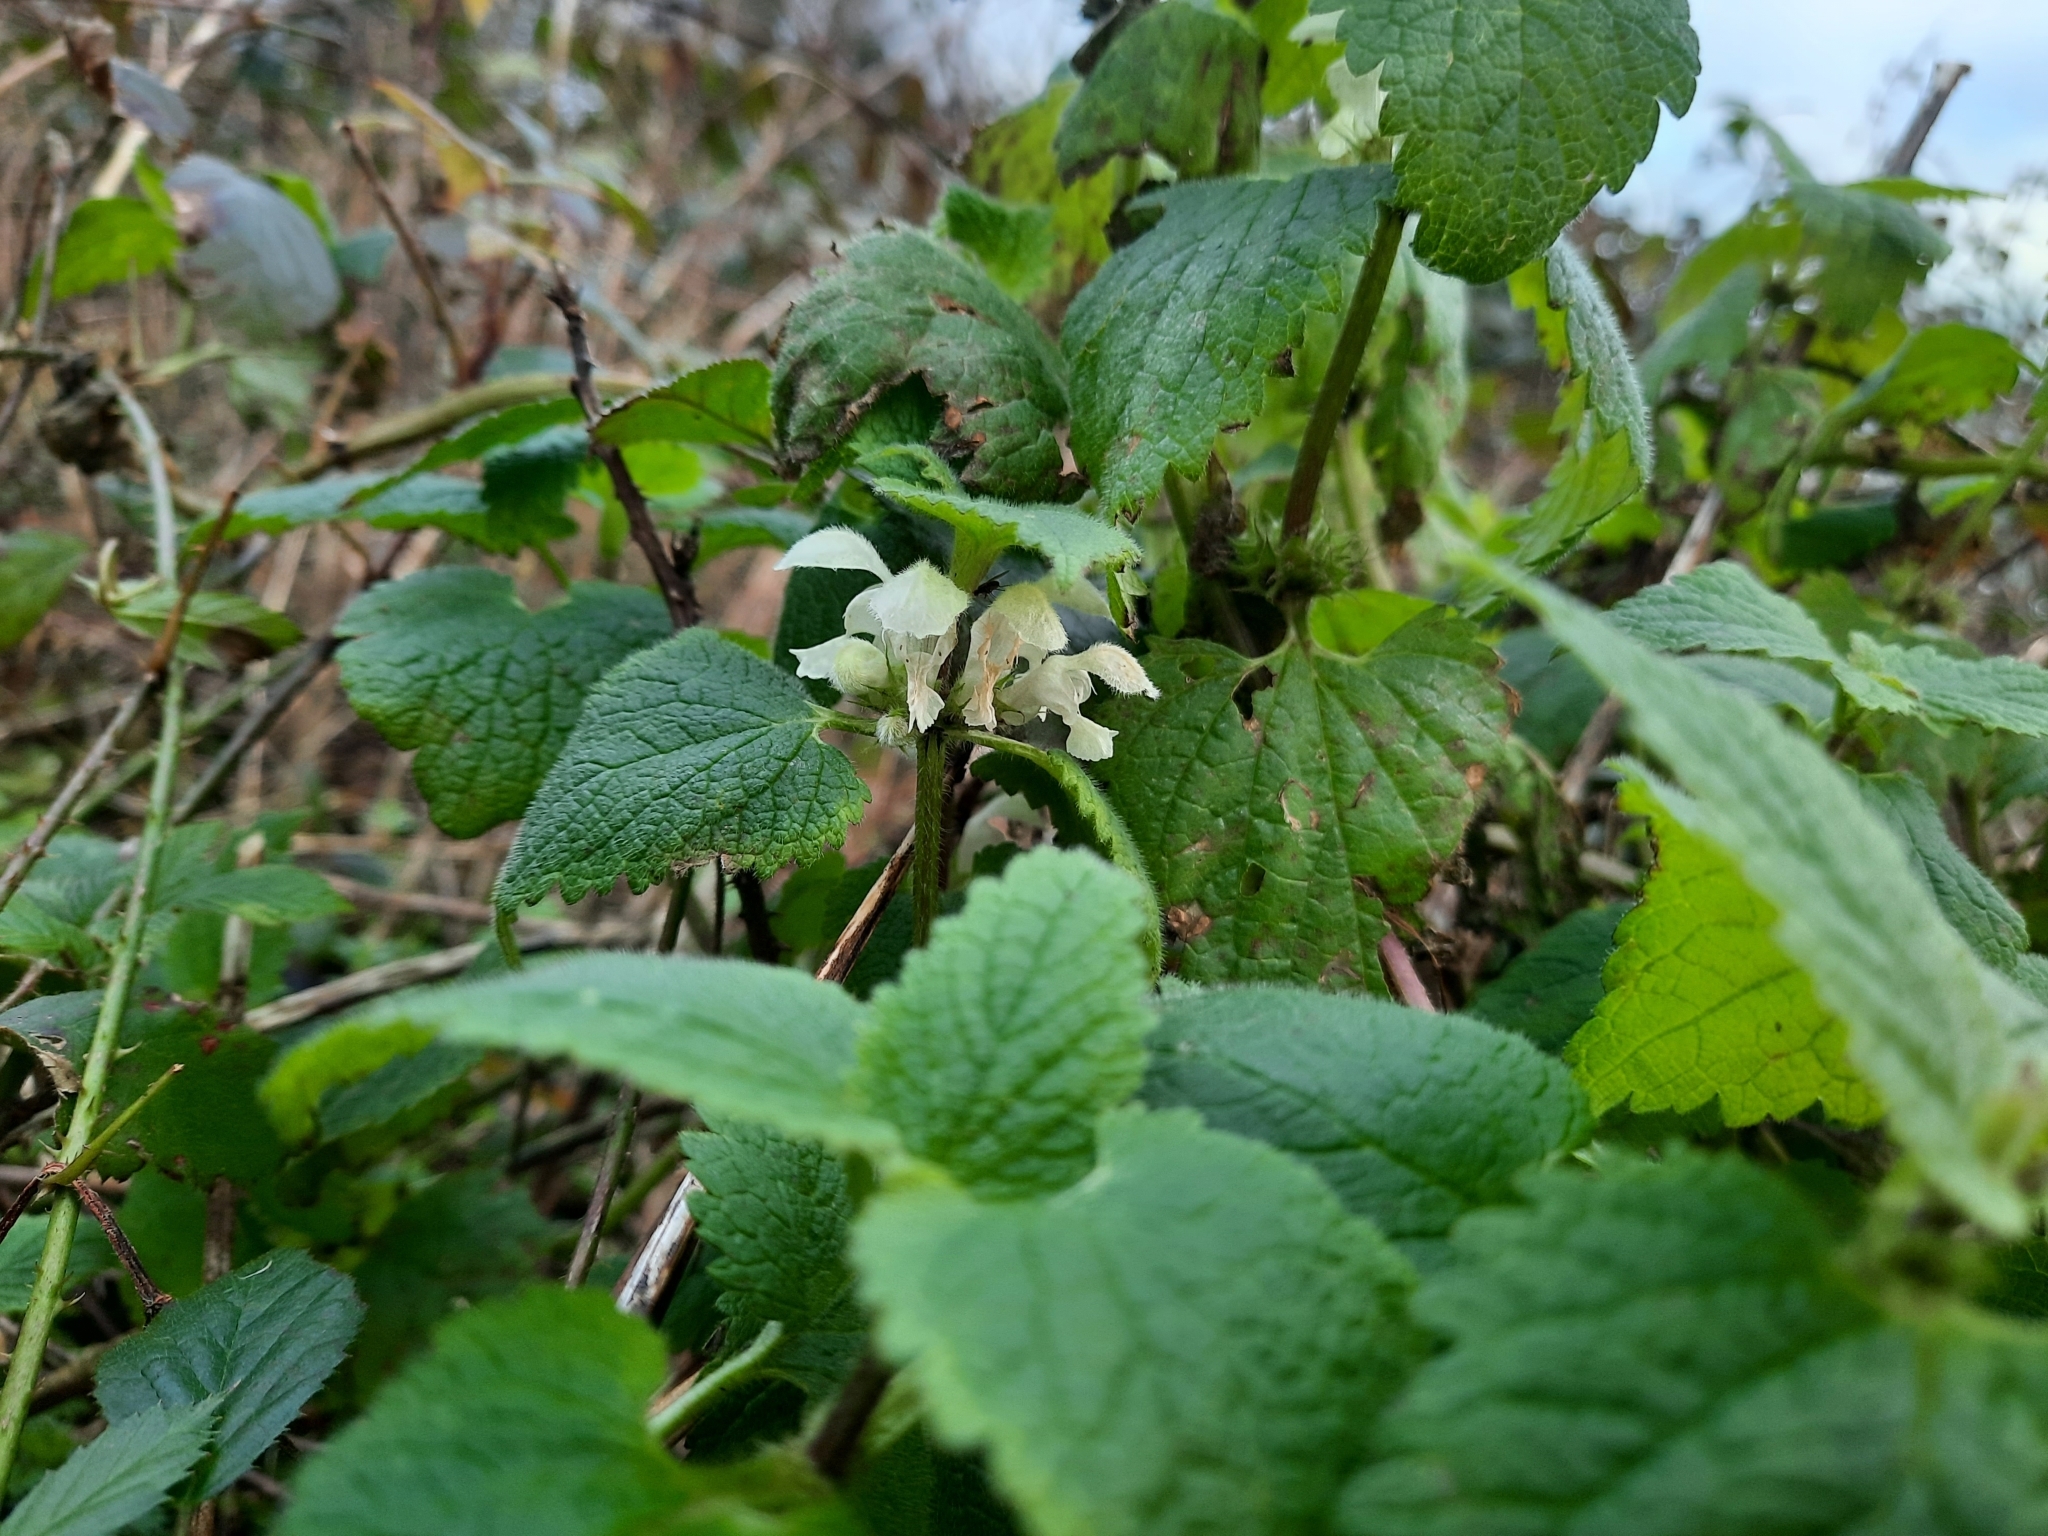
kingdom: Plantae
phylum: Tracheophyta
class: Magnoliopsida
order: Lamiales
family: Lamiaceae
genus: Lamium
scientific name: Lamium album
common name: White dead-nettle
